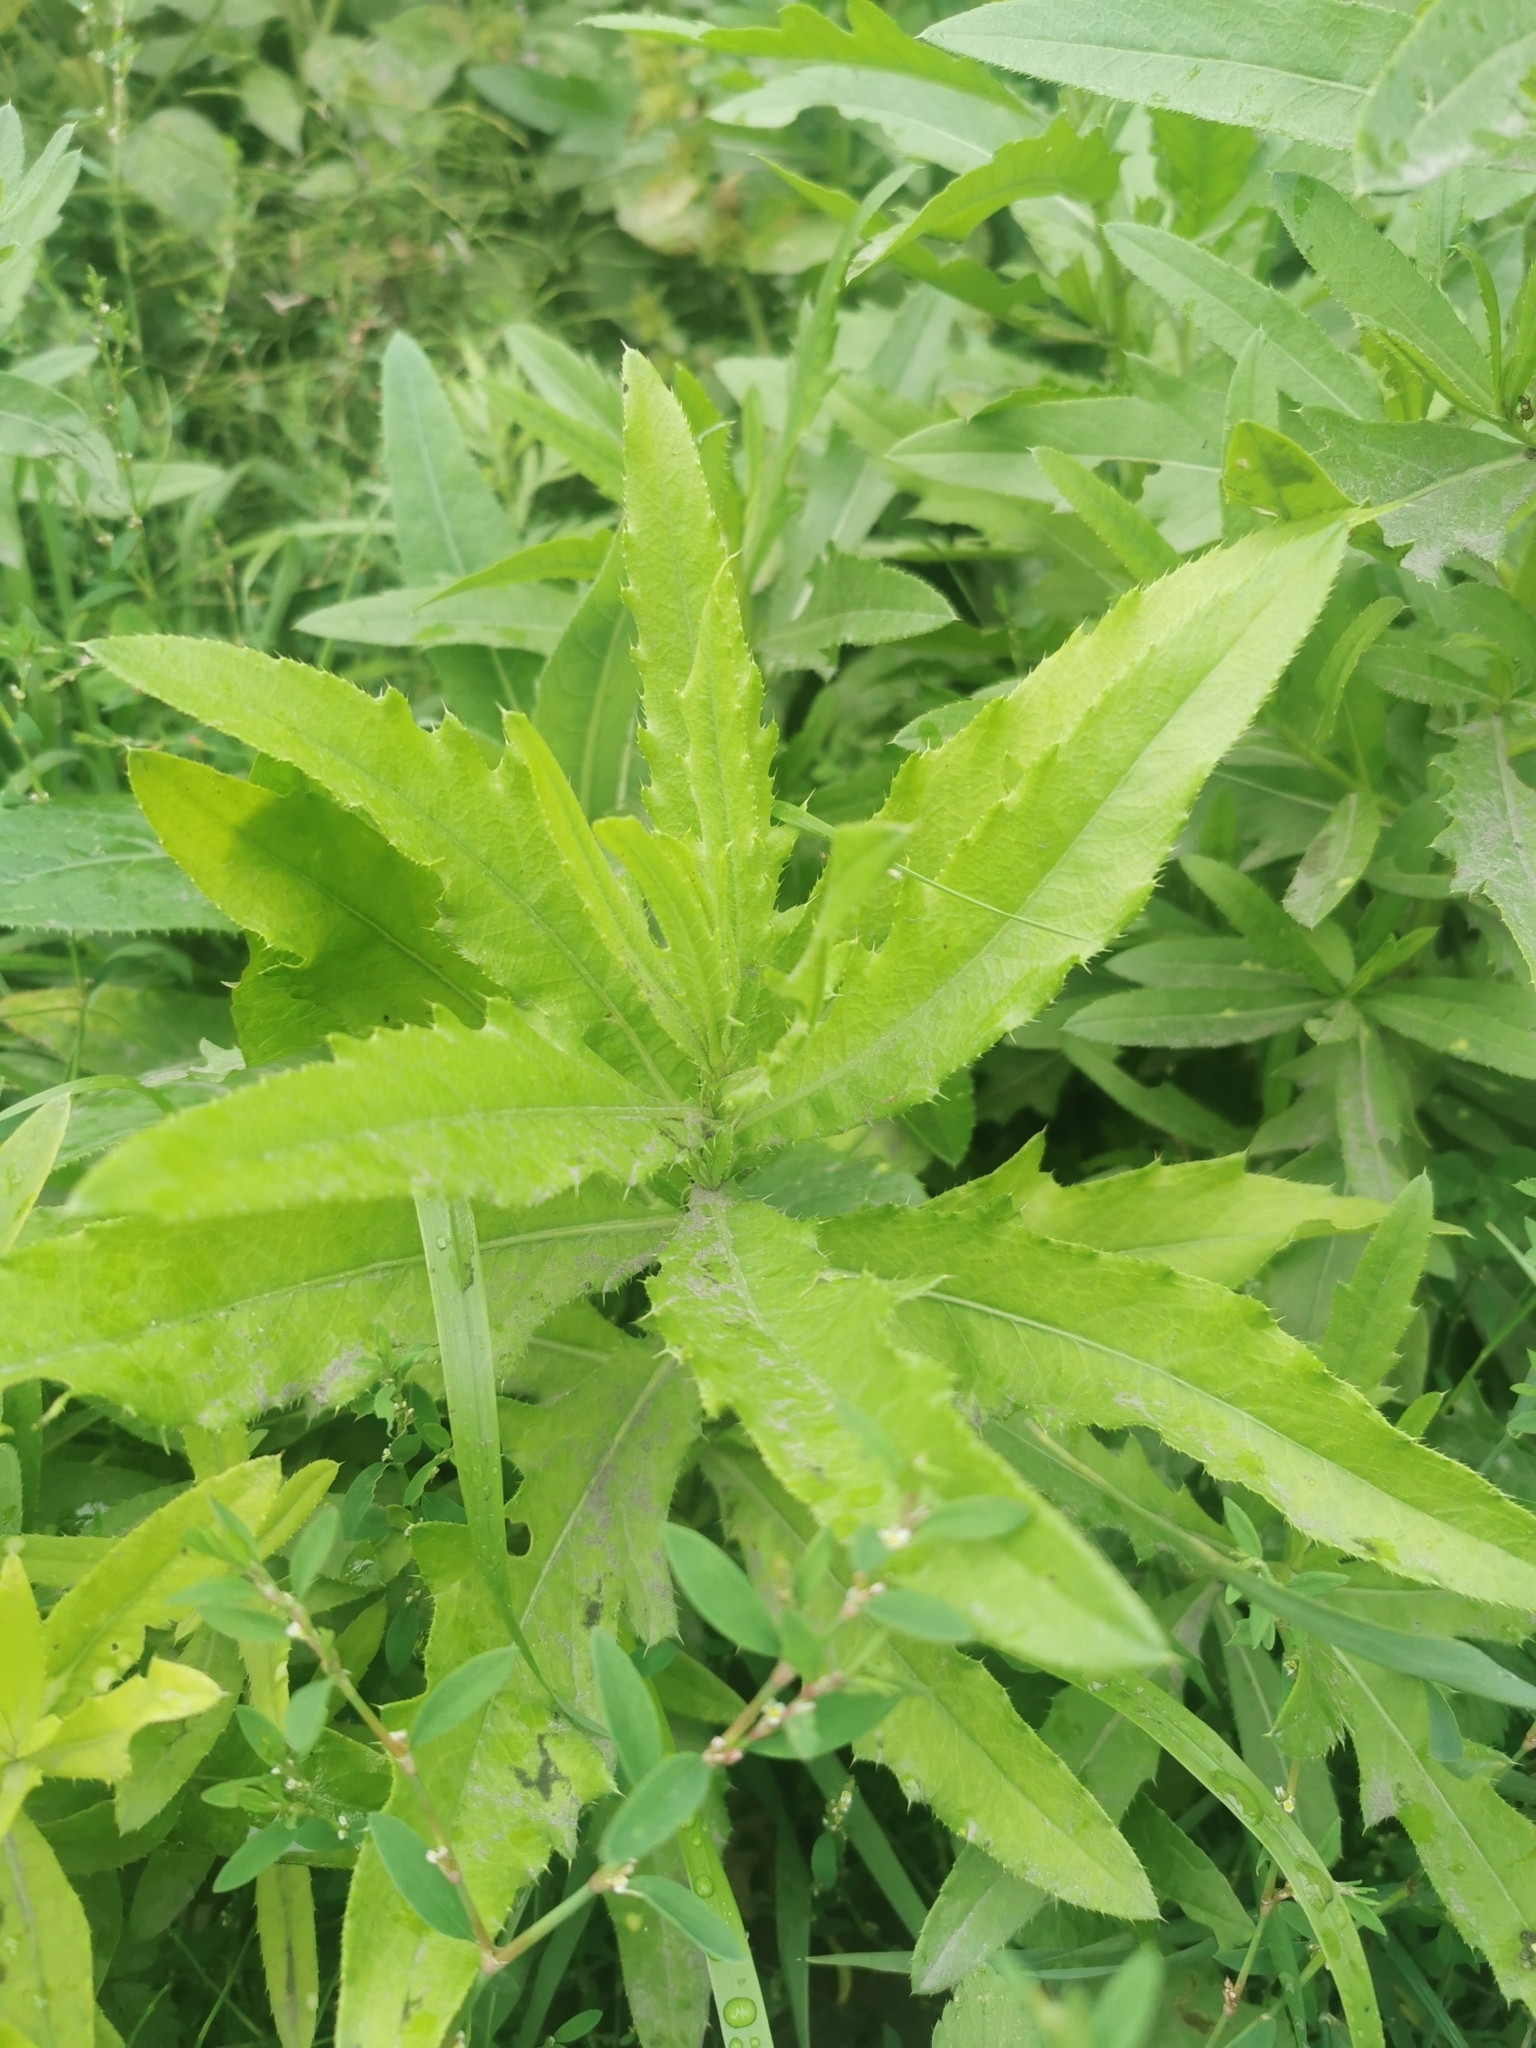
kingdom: Plantae
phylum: Tracheophyta
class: Magnoliopsida
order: Asterales
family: Asteraceae
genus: Cirsium
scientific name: Cirsium arvense
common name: Creeping thistle
